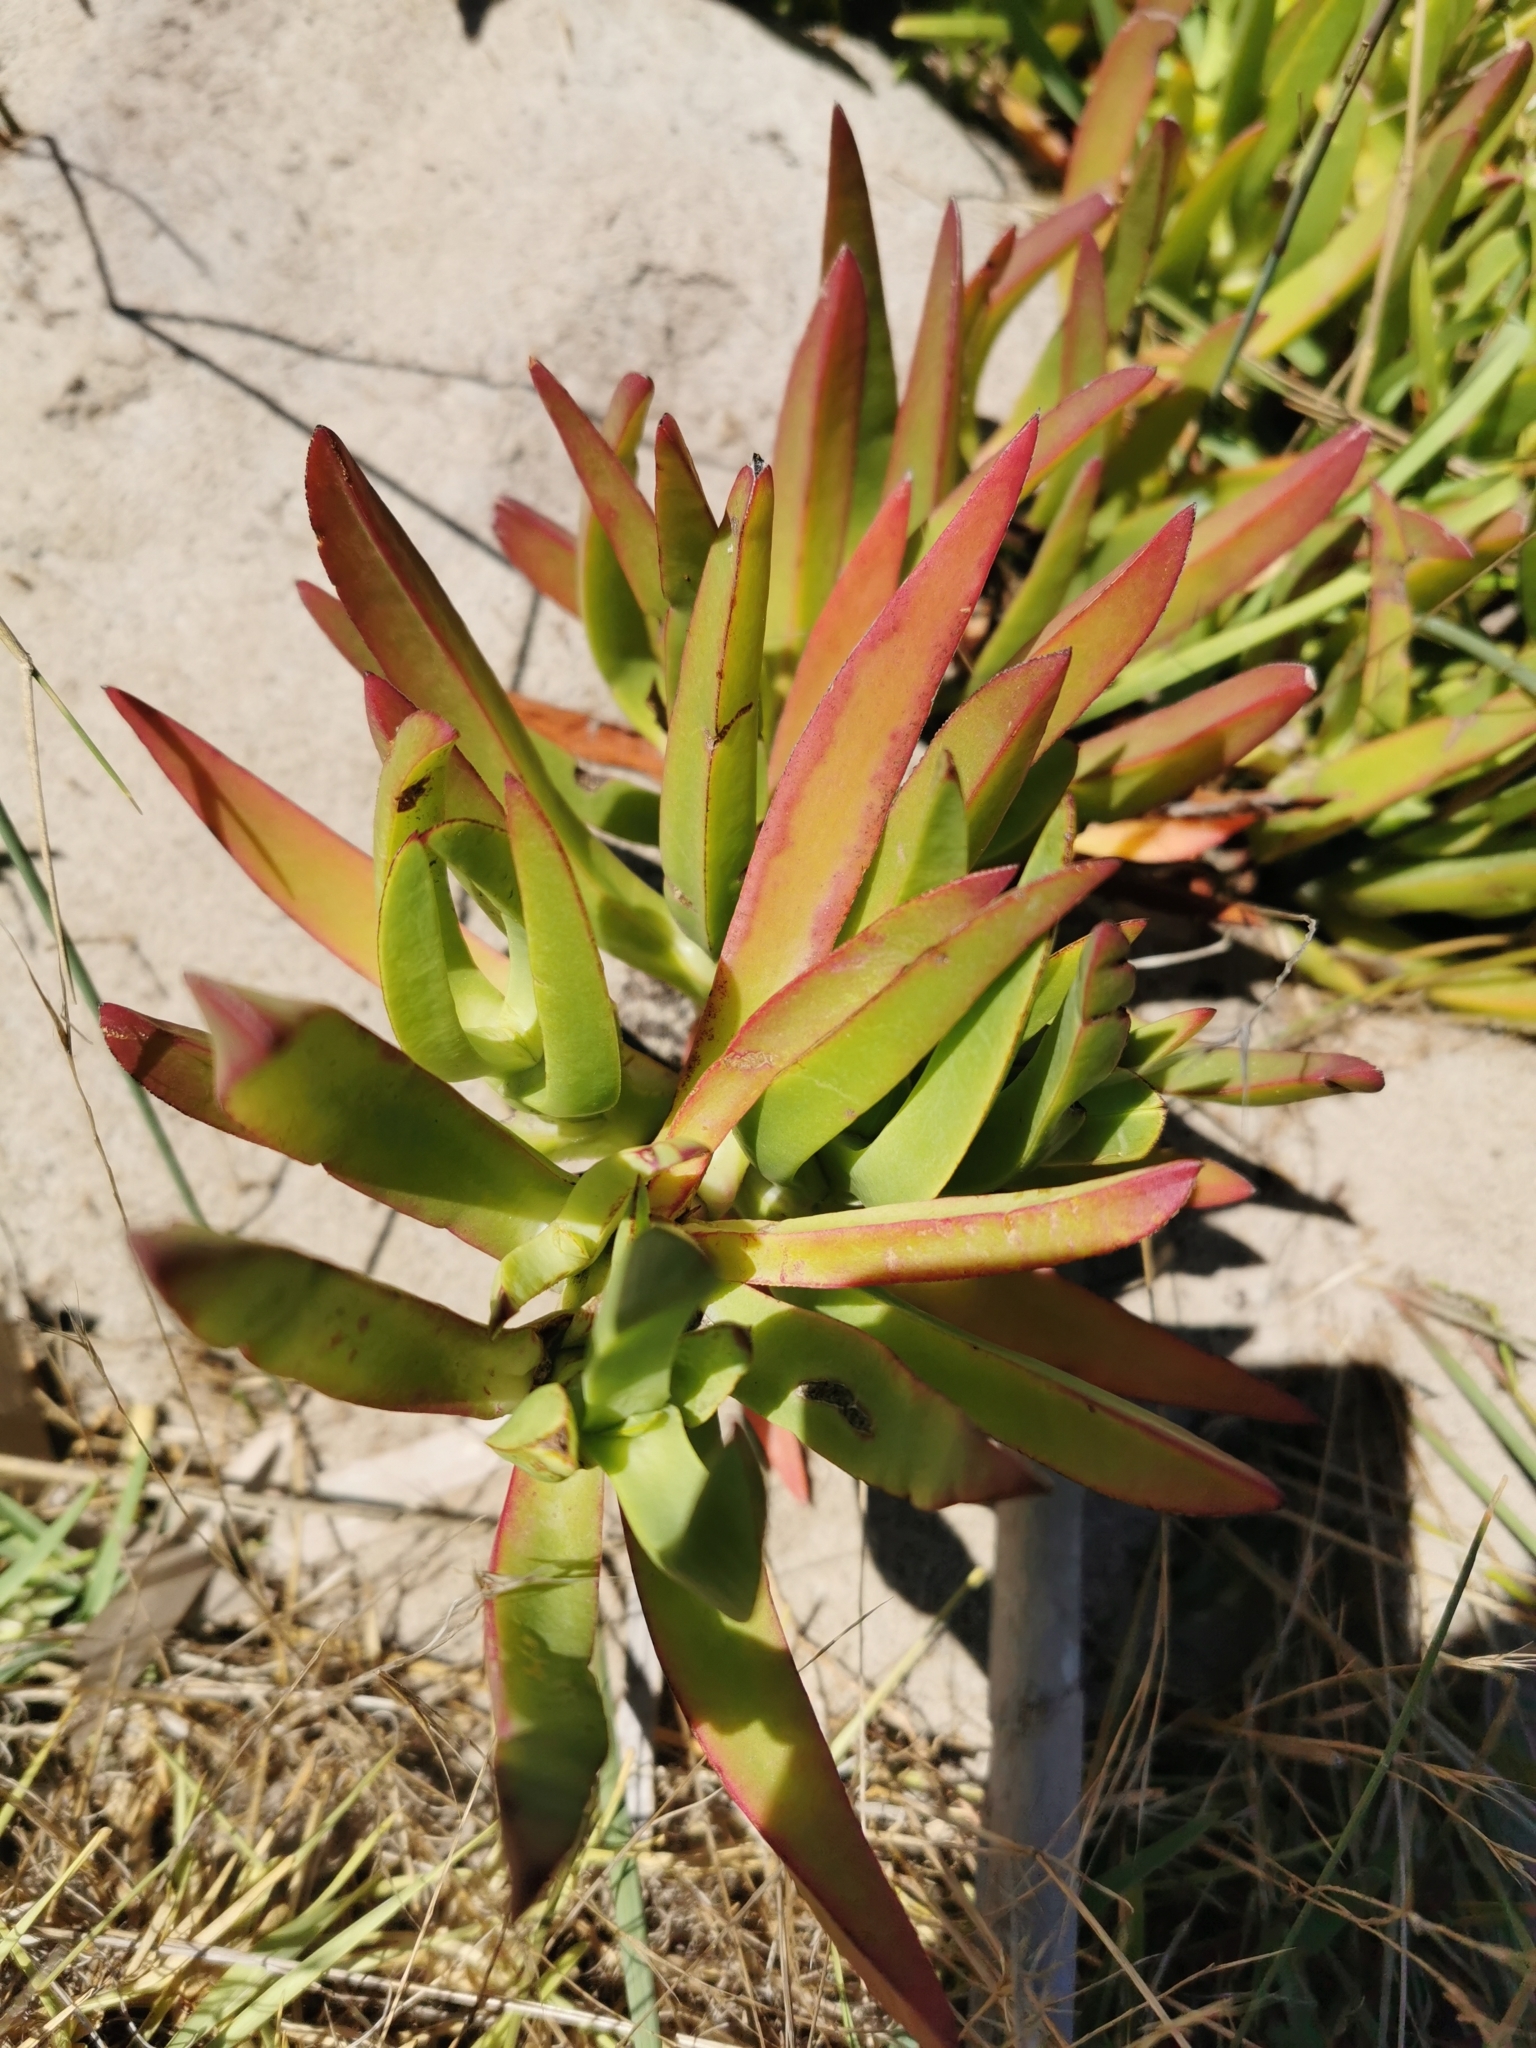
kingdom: Plantae
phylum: Tracheophyta
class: Magnoliopsida
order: Caryophyllales
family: Aizoaceae
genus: Carpobrotus
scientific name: Carpobrotus edulis
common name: Hottentot-fig
